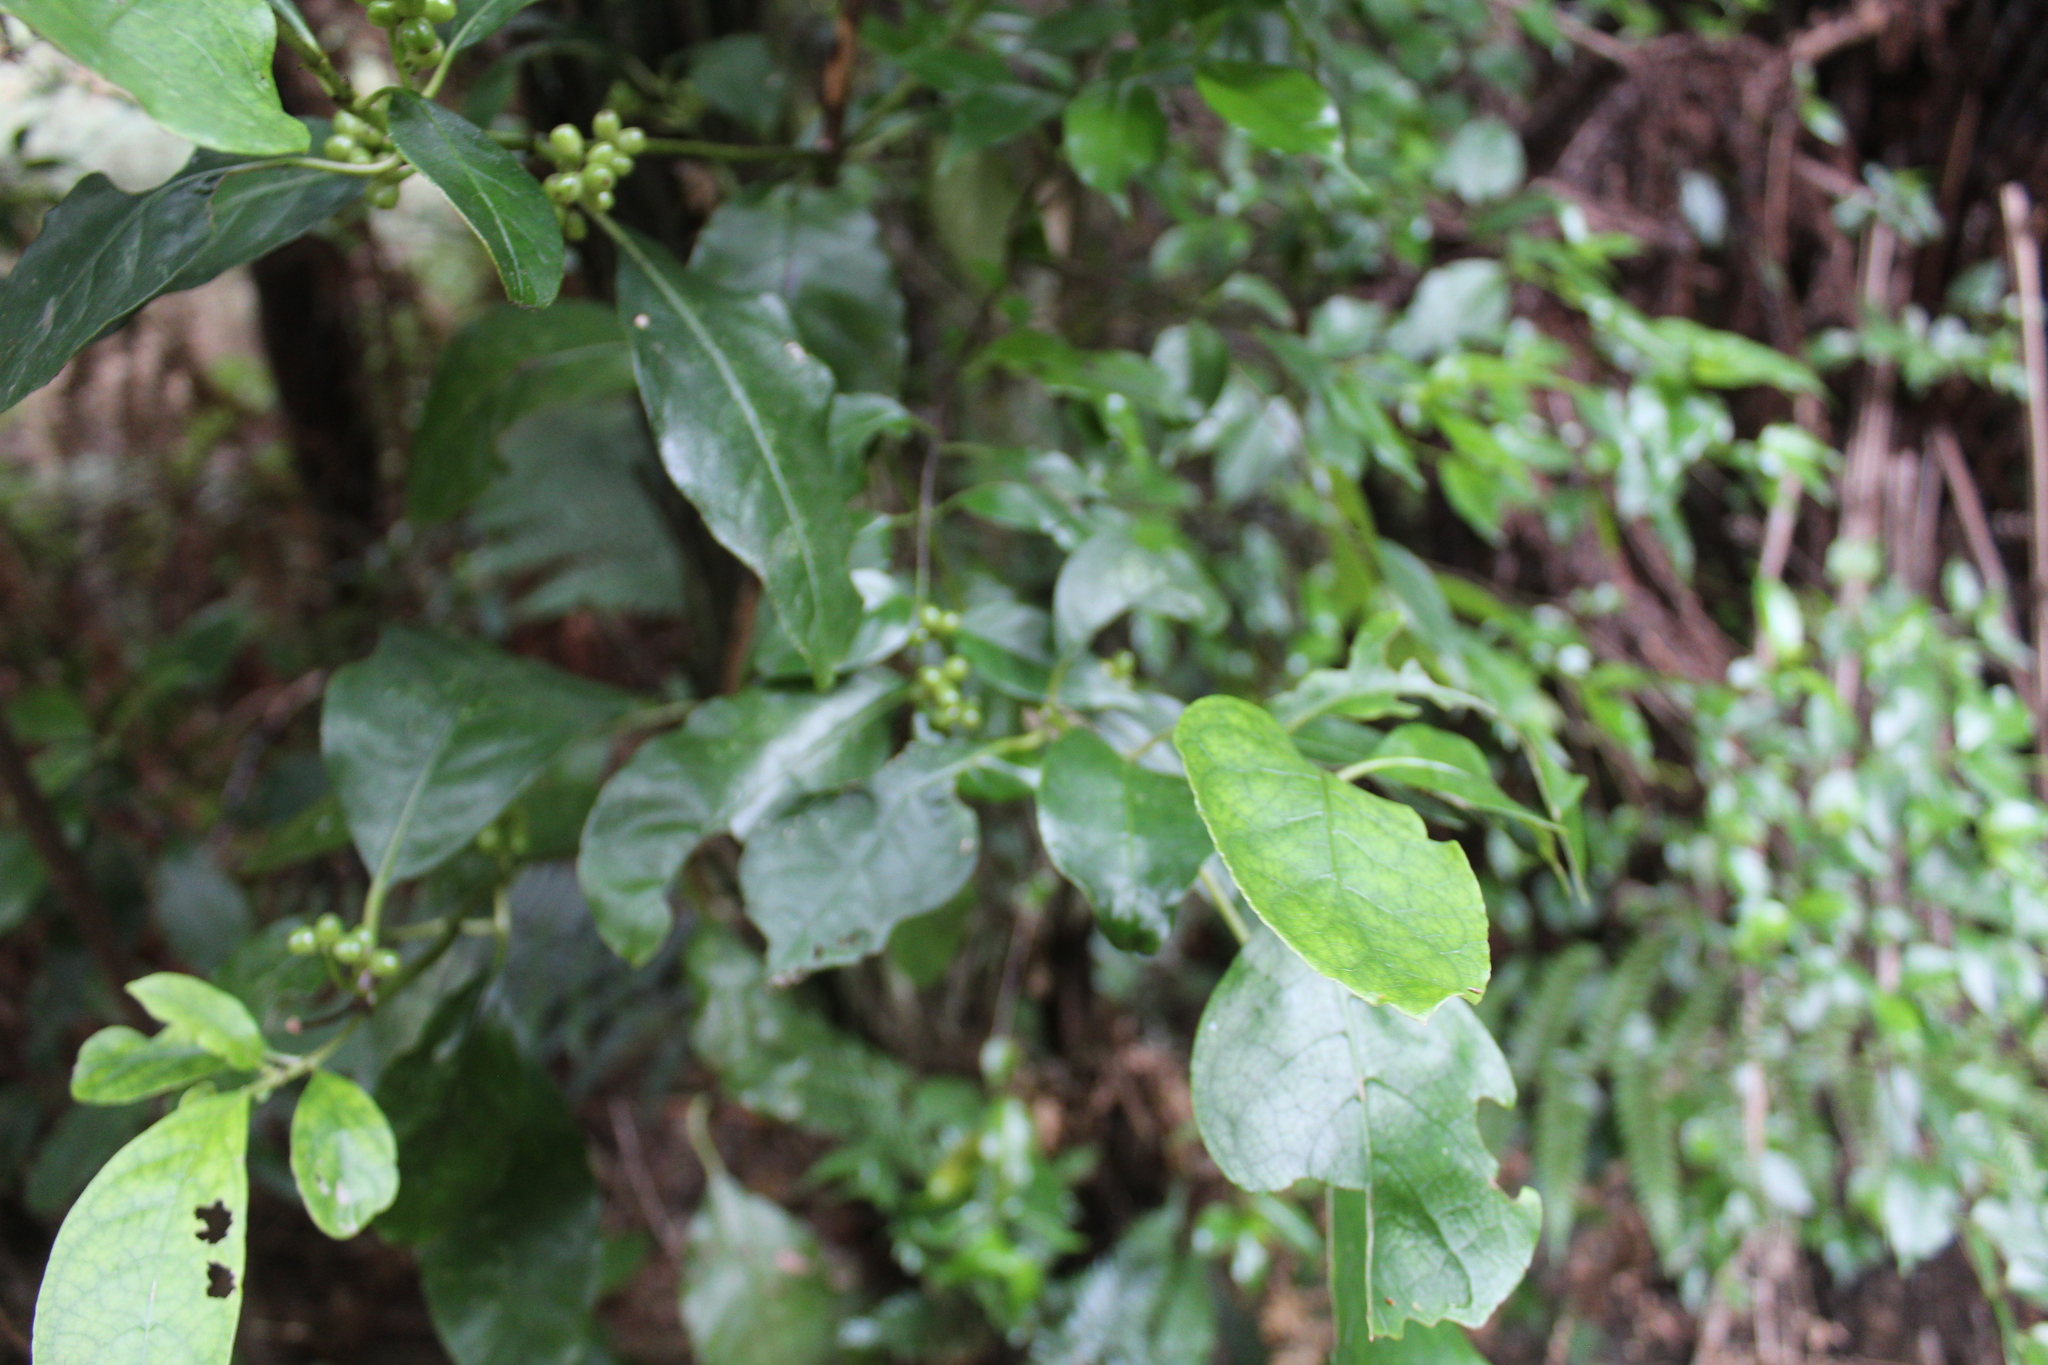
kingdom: Plantae
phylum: Tracheophyta
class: Magnoliopsida
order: Gentianales
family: Rubiaceae
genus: Coprosma
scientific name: Coprosma autumnalis
